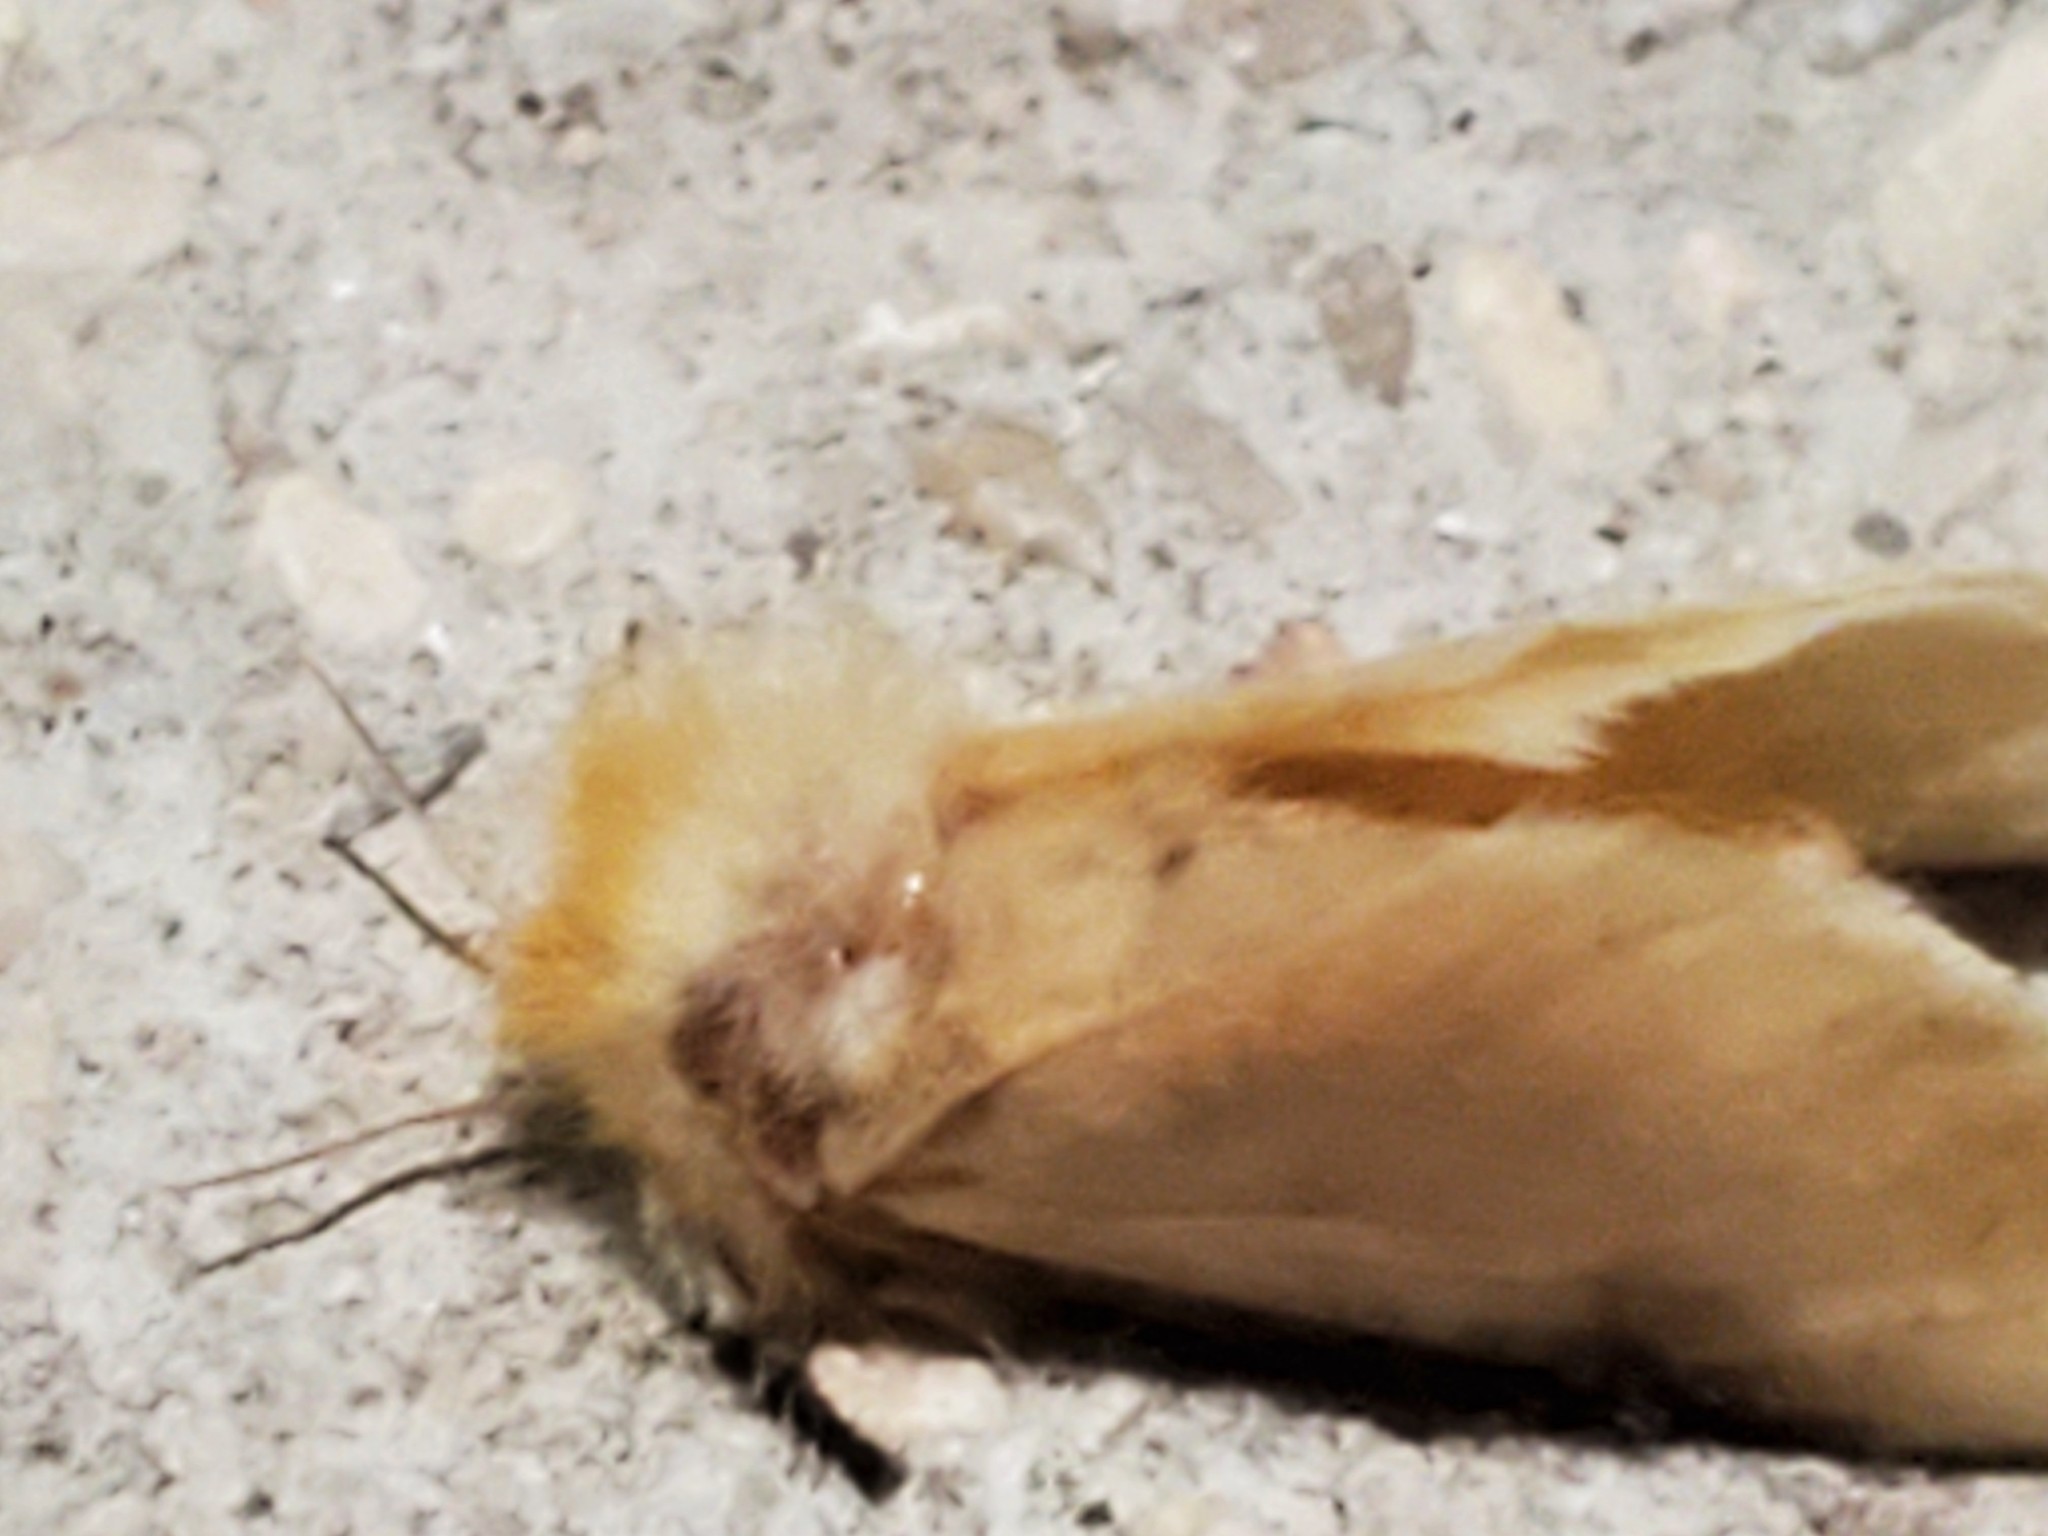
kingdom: Animalia
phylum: Arthropoda
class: Insecta
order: Lepidoptera
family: Megalopygidae
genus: Megalopyge
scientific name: Megalopyge opercularis
